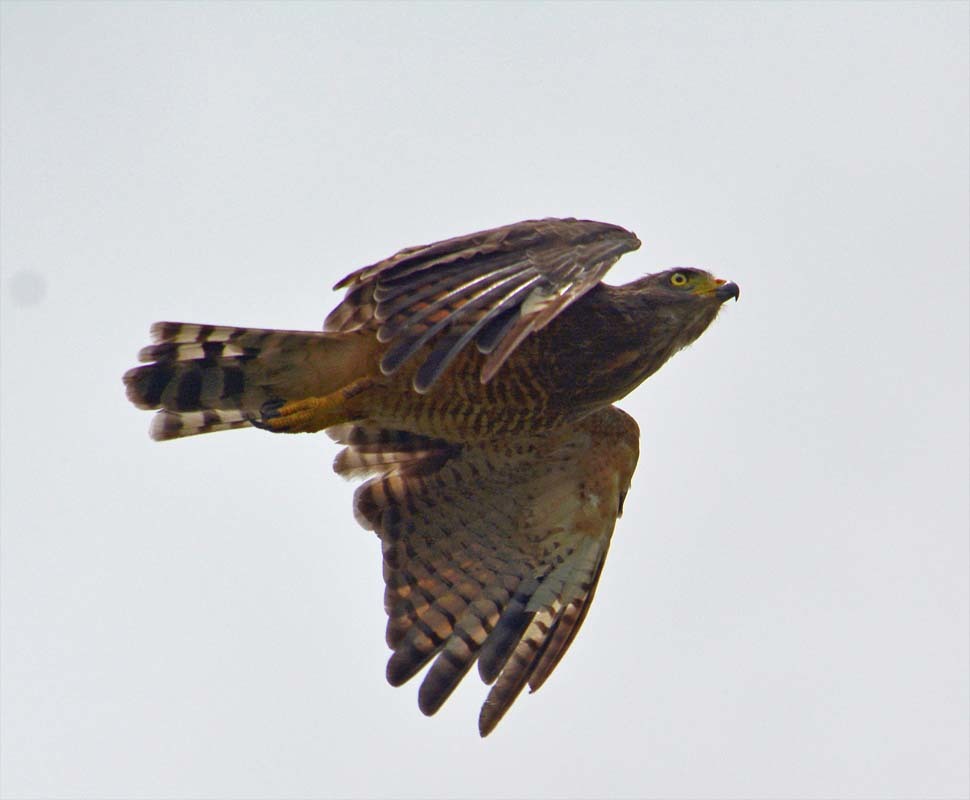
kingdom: Animalia
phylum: Chordata
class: Aves
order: Accipitriformes
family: Accipitridae
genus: Rupornis
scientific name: Rupornis magnirostris
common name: Roadside hawk
